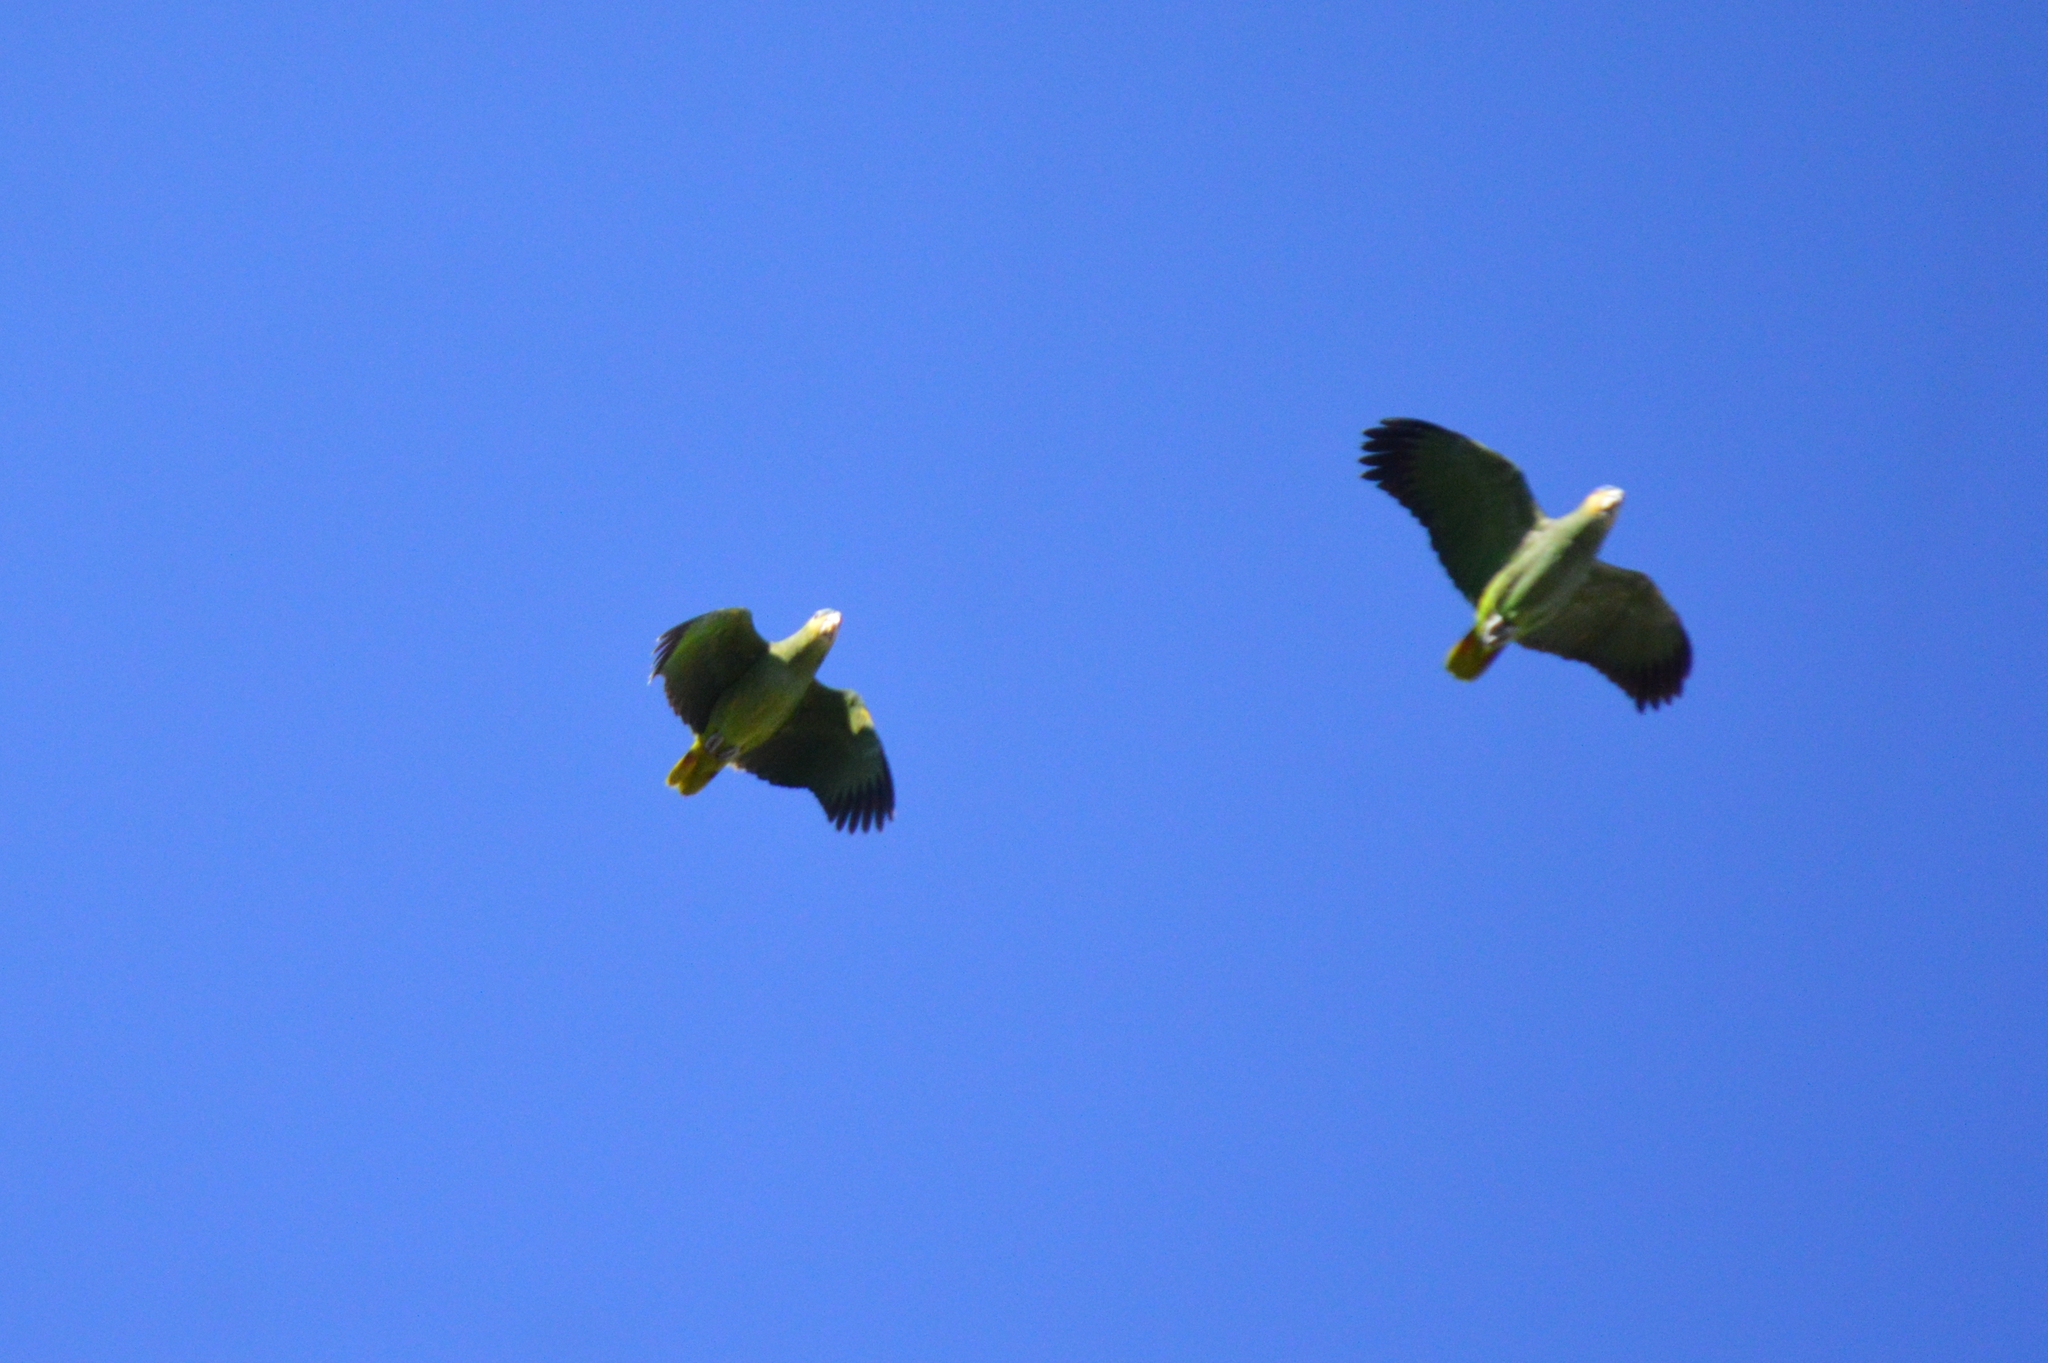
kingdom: Animalia
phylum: Chordata
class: Aves
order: Psittaciformes
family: Psittacidae
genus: Amazona
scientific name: Amazona amazonica
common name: Orange-winged amazon
